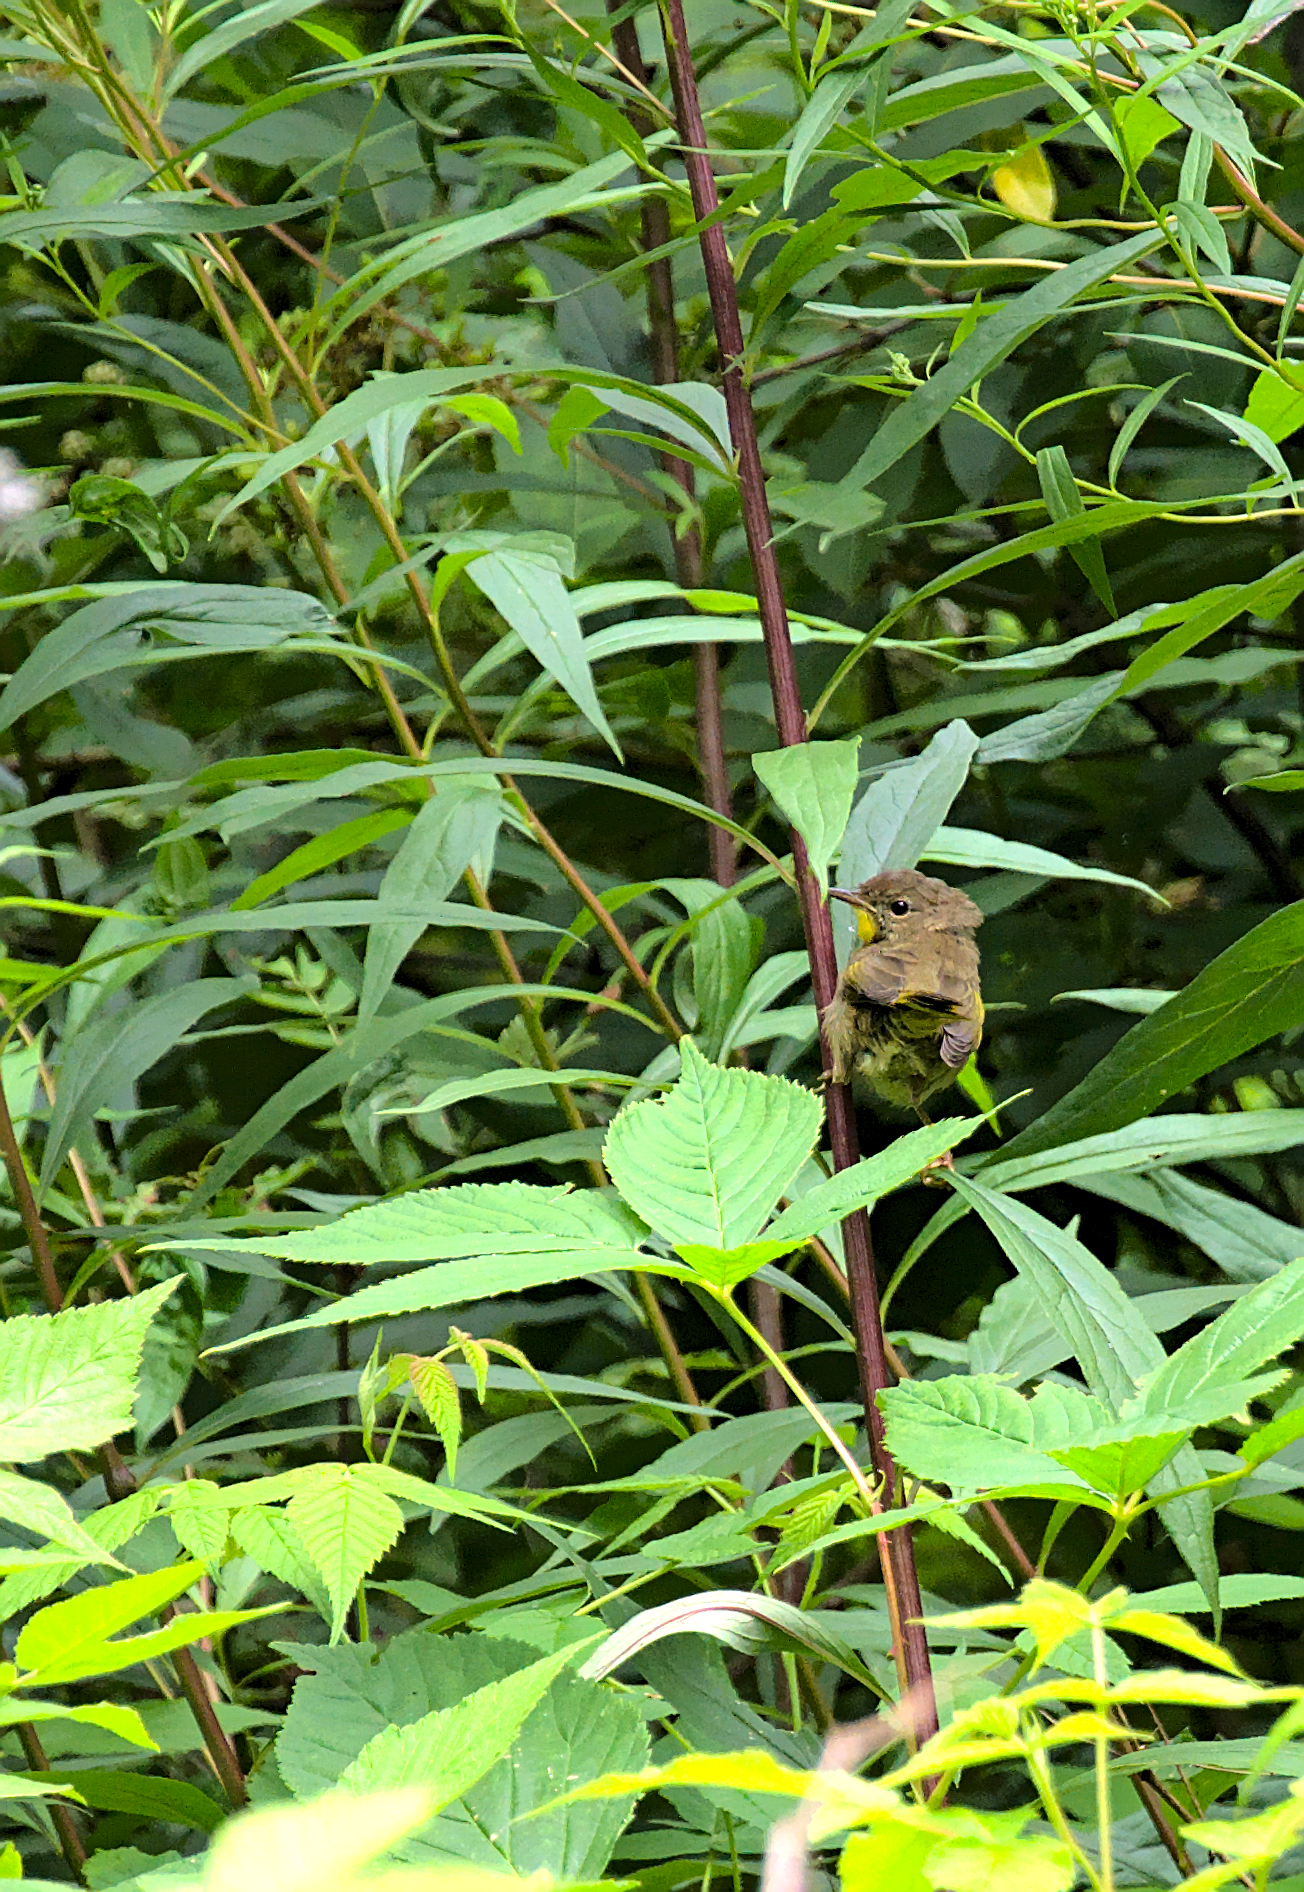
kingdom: Animalia
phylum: Chordata
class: Aves
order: Passeriformes
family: Parulidae
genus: Geothlypis
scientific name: Geothlypis trichas
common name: Common yellowthroat
